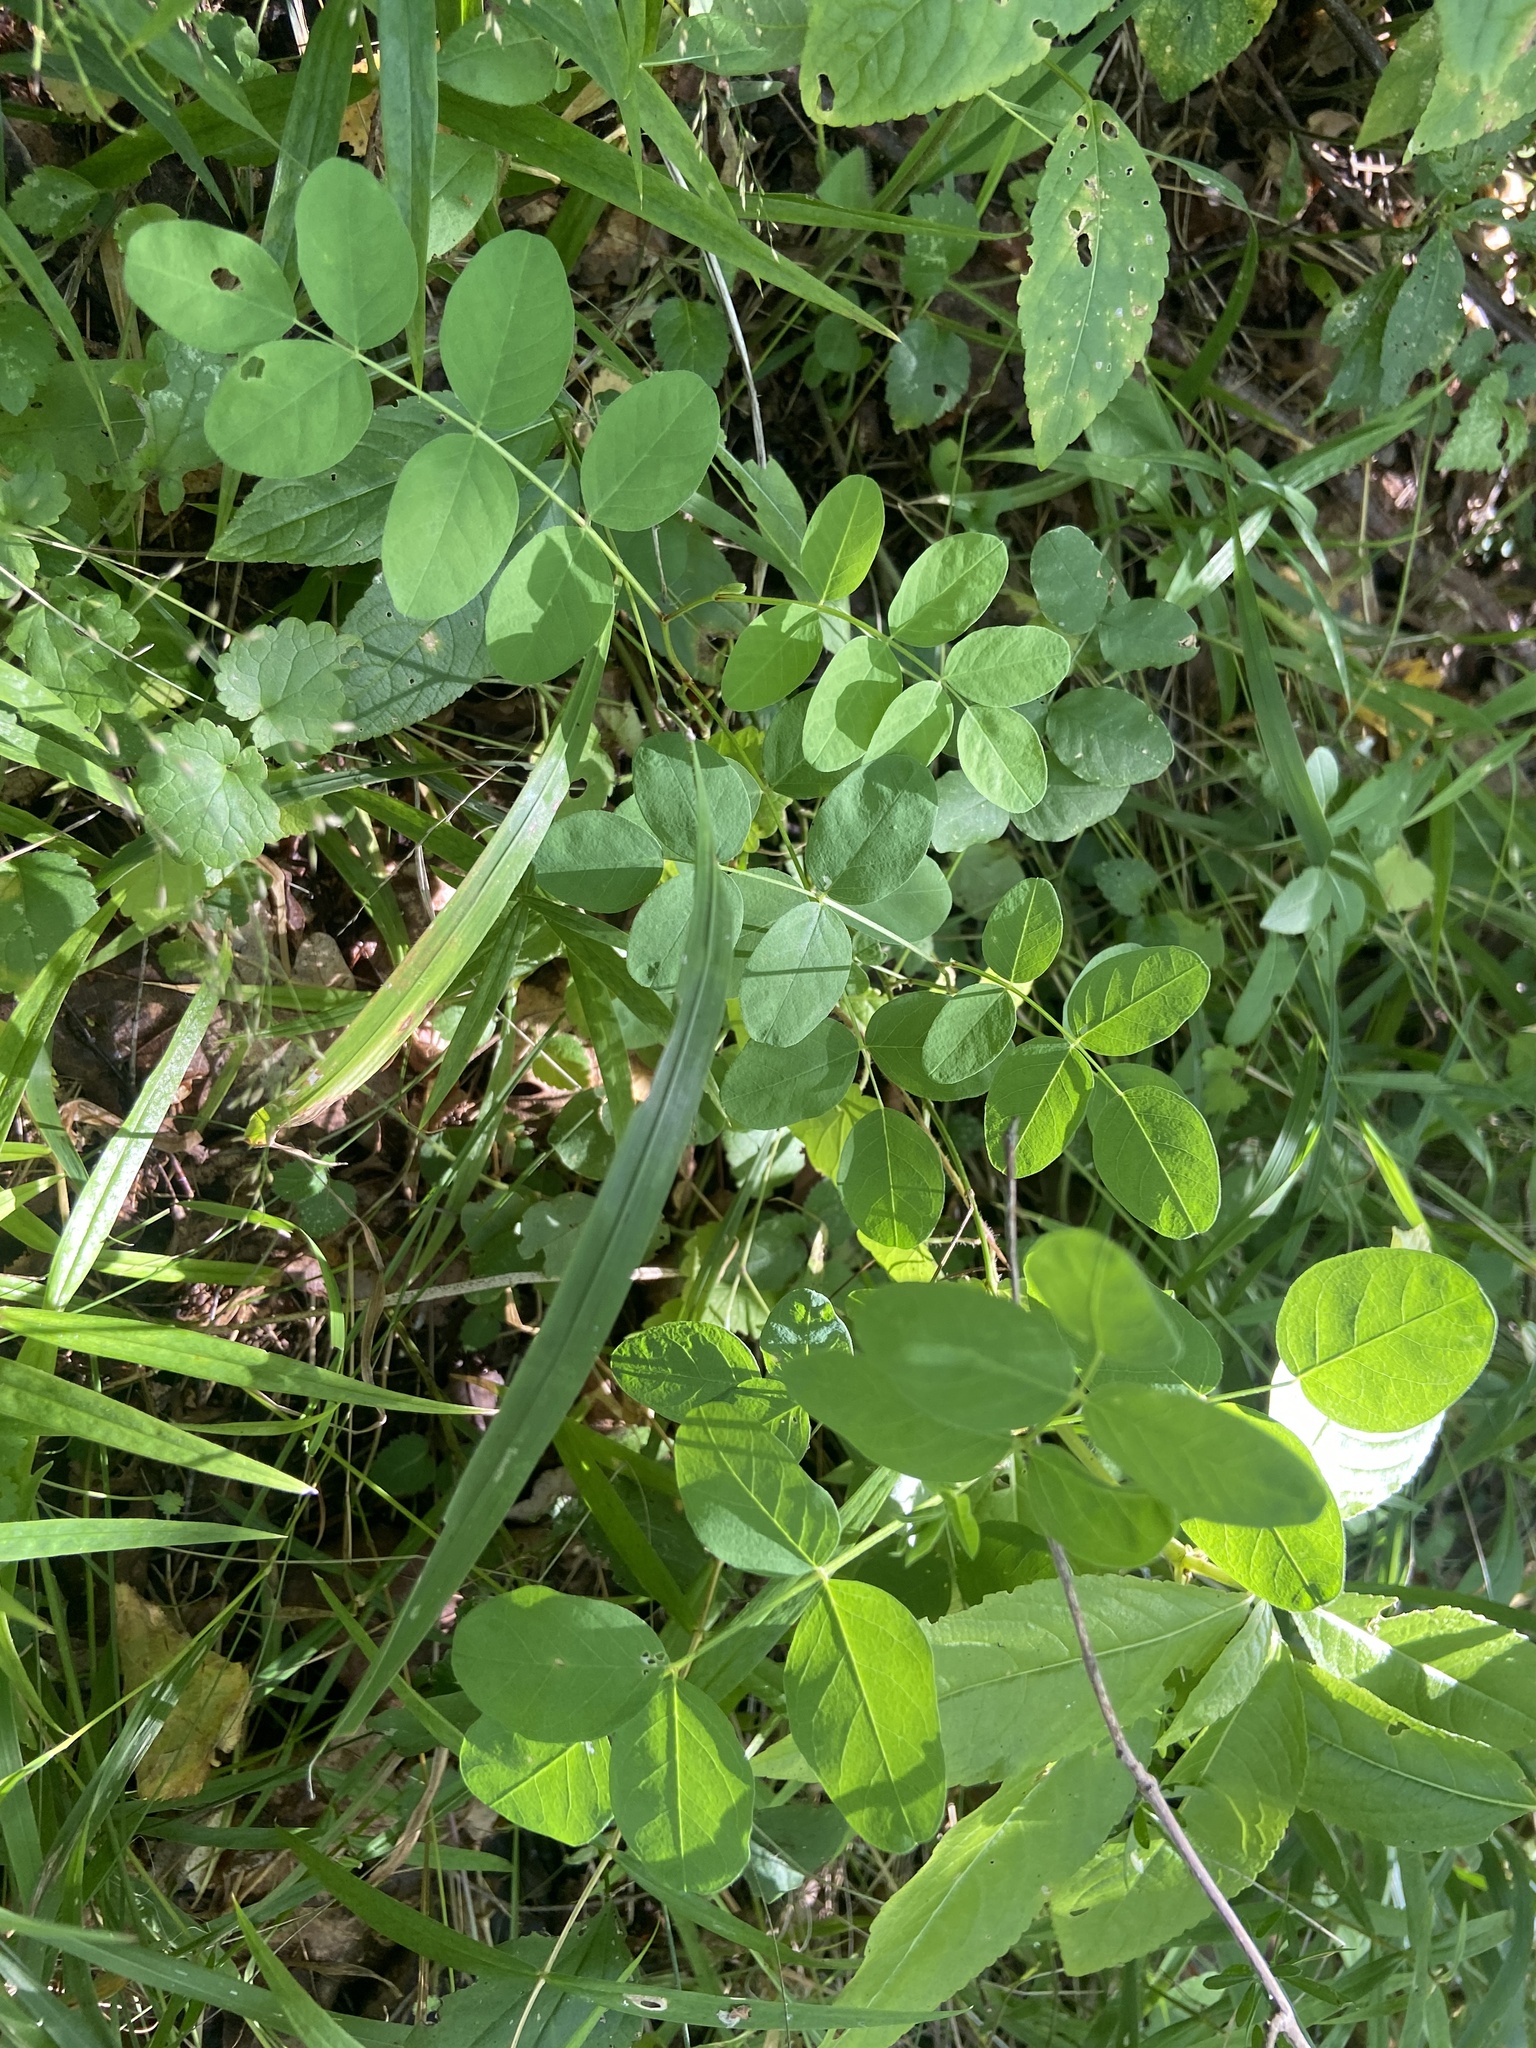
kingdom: Plantae
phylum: Tracheophyta
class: Magnoliopsida
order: Fabales
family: Fabaceae
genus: Astragalus
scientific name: Astragalus glycyphyllos
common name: Wild liquorice
